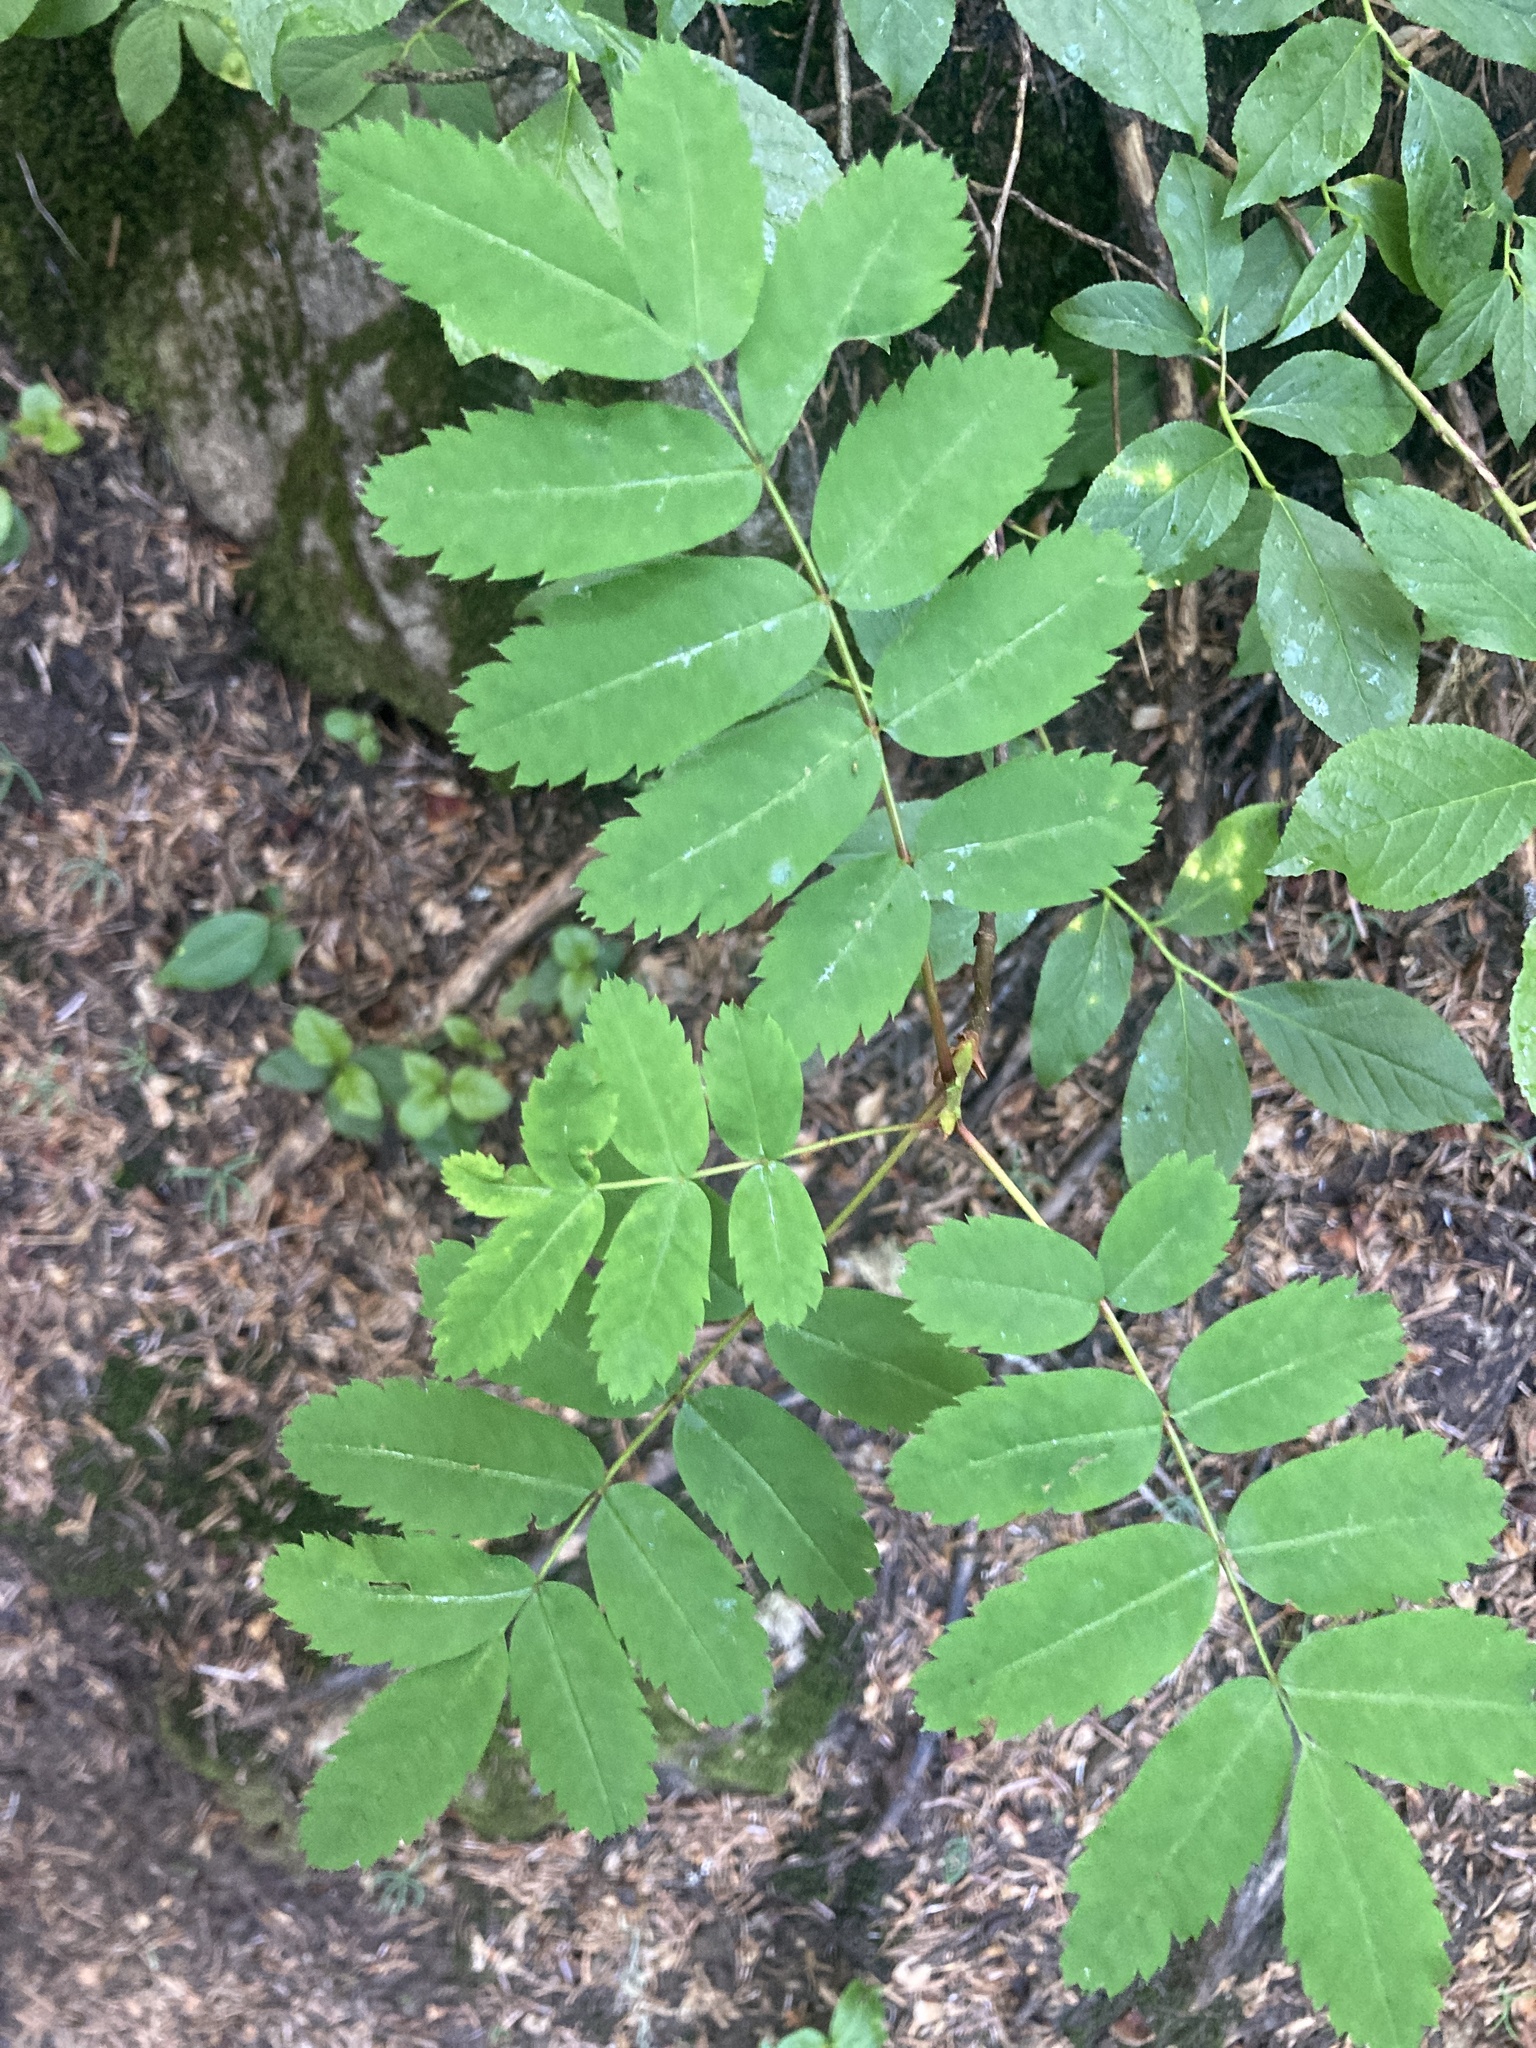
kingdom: Plantae
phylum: Tracheophyta
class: Magnoliopsida
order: Rosales
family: Rosaceae
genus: Sorbus
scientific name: Sorbus sitchensis
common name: Sitka mountain-ash
